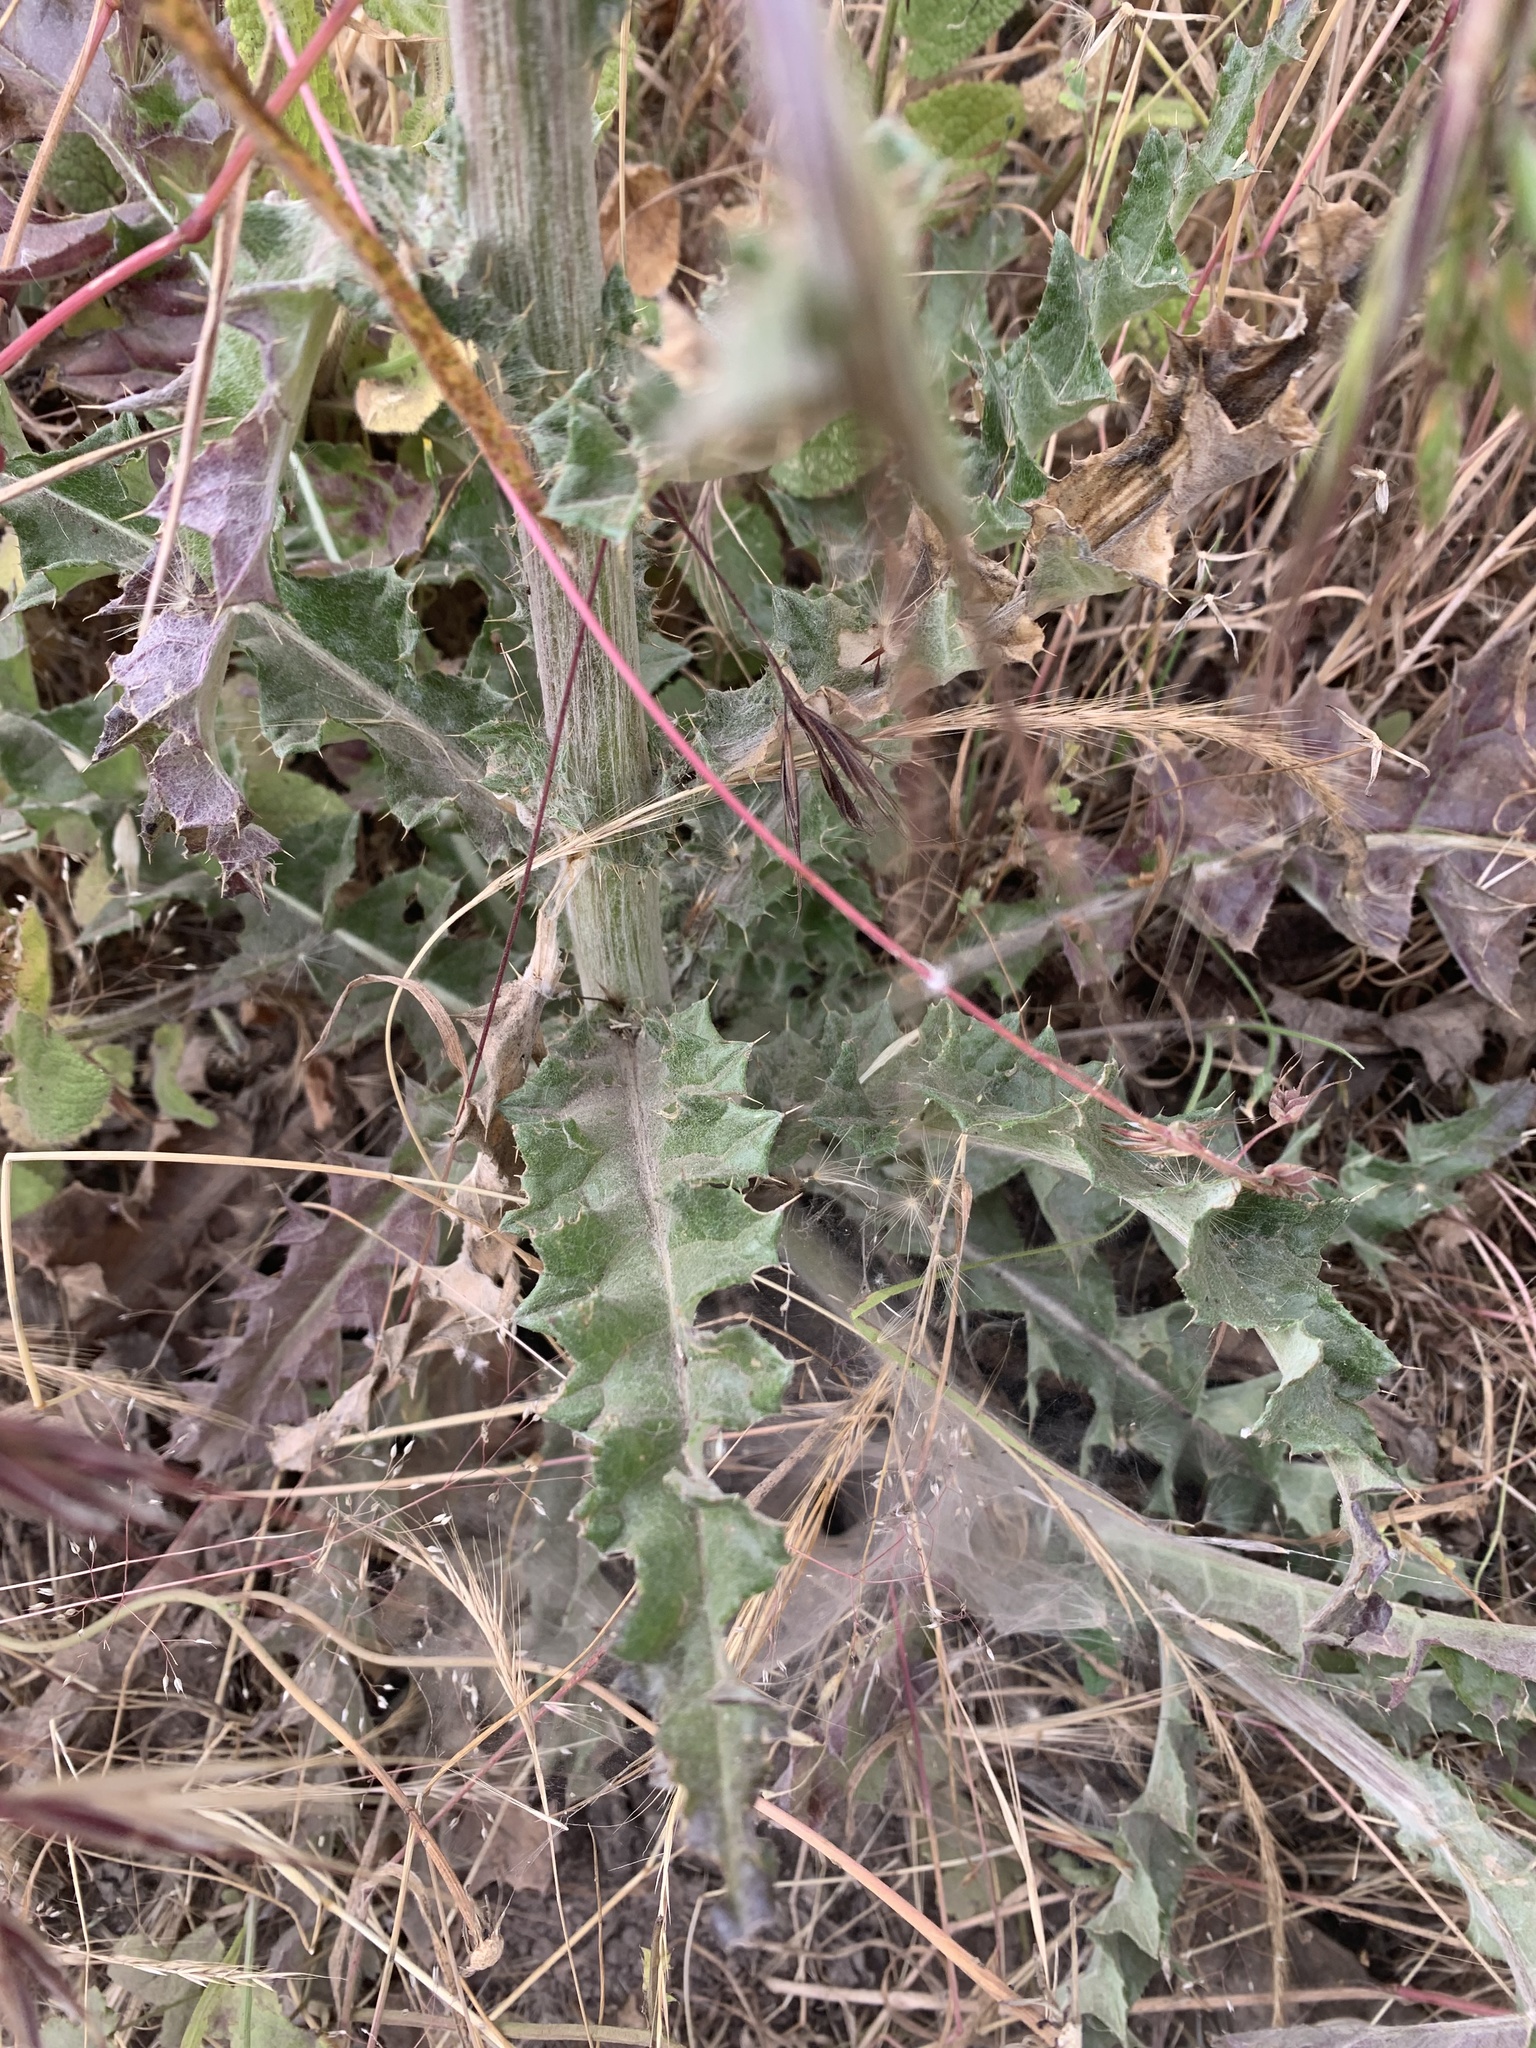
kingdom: Plantae
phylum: Tracheophyta
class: Magnoliopsida
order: Asterales
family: Asteraceae
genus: Cirsium
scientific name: Cirsium occidentale
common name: Western thistle
